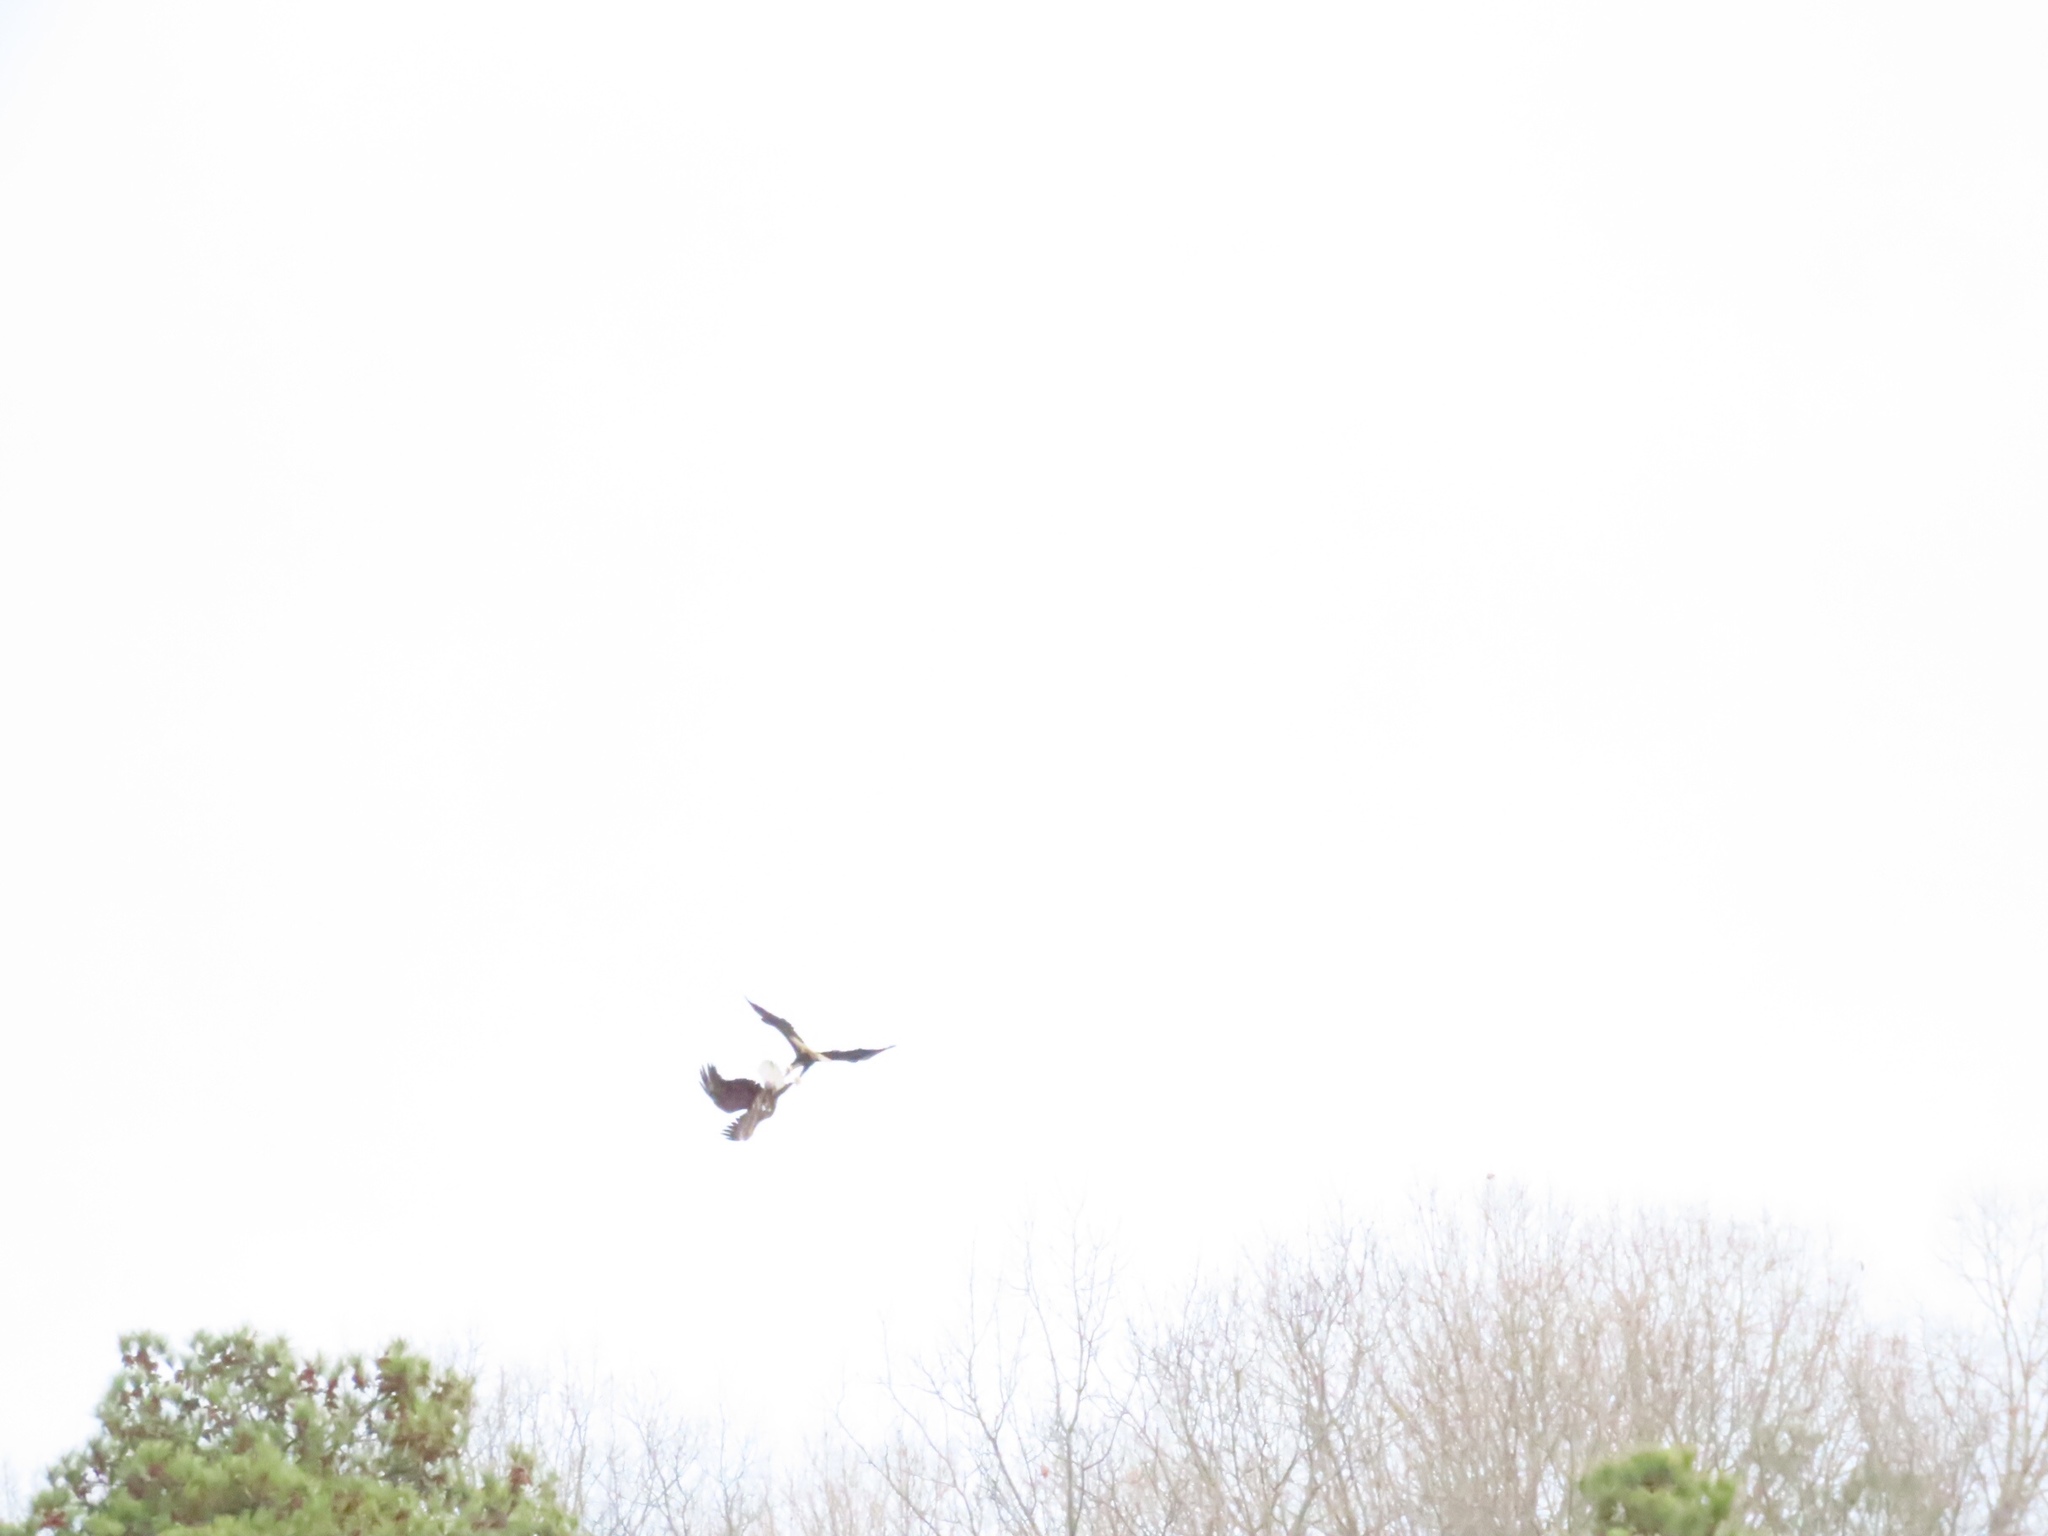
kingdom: Animalia
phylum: Chordata
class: Aves
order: Accipitriformes
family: Accipitridae
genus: Haliaeetus
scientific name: Haliaeetus leucocephalus
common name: Bald eagle
